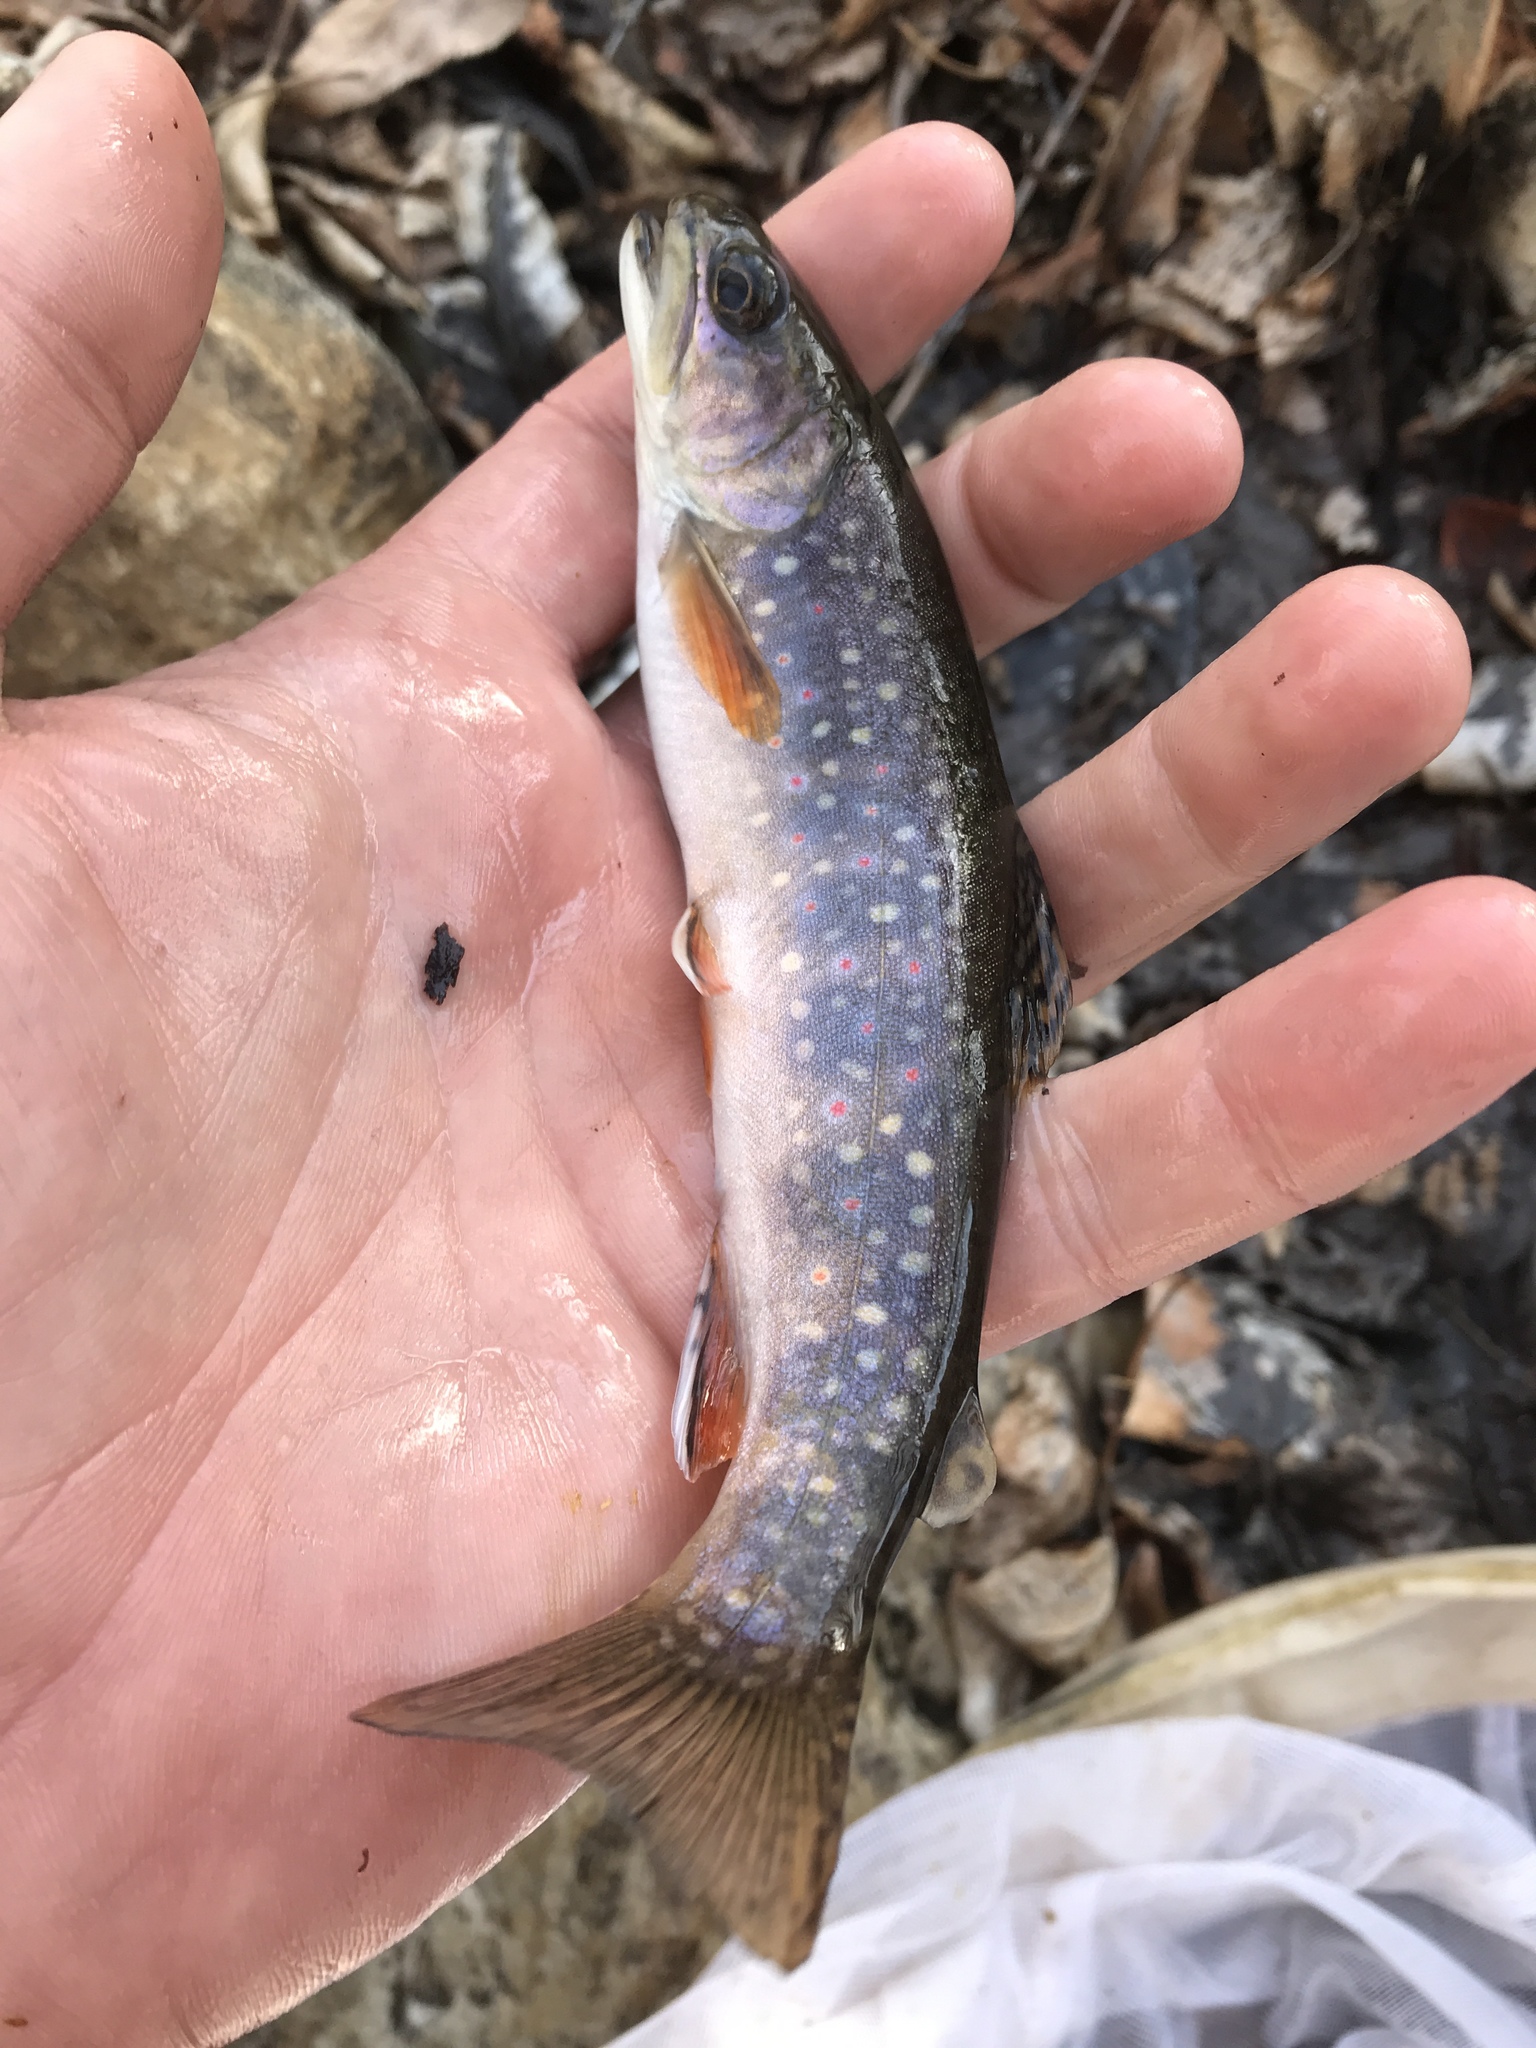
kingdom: Animalia
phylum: Chordata
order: Salmoniformes
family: Salmonidae
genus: Salvelinus
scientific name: Salvelinus fontinalis
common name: Brook trout
